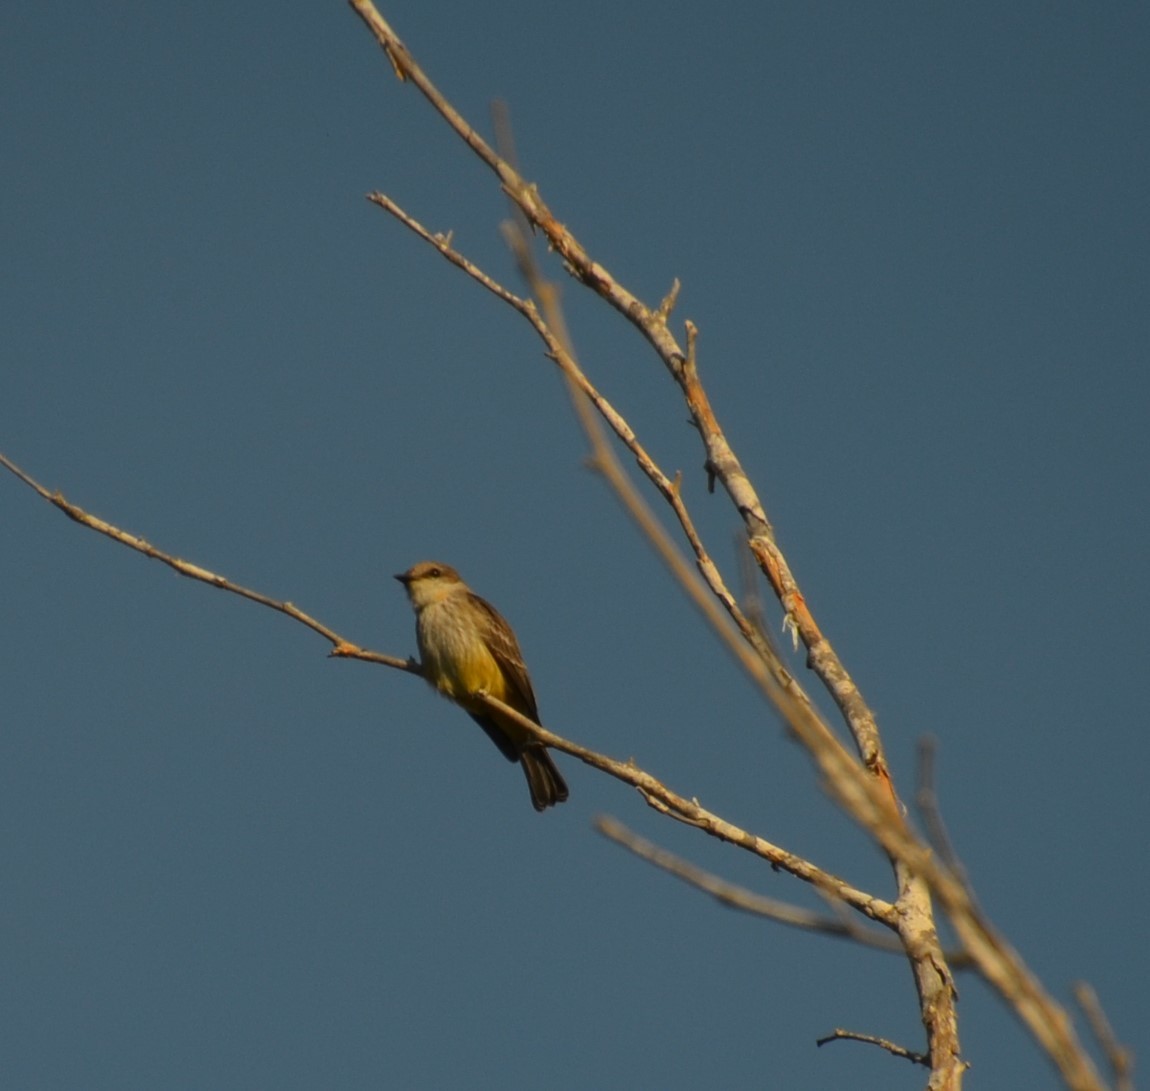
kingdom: Animalia
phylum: Chordata
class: Aves
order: Passeriformes
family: Tyrannidae
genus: Pyrocephalus
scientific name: Pyrocephalus rubinus
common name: Vermilion flycatcher
